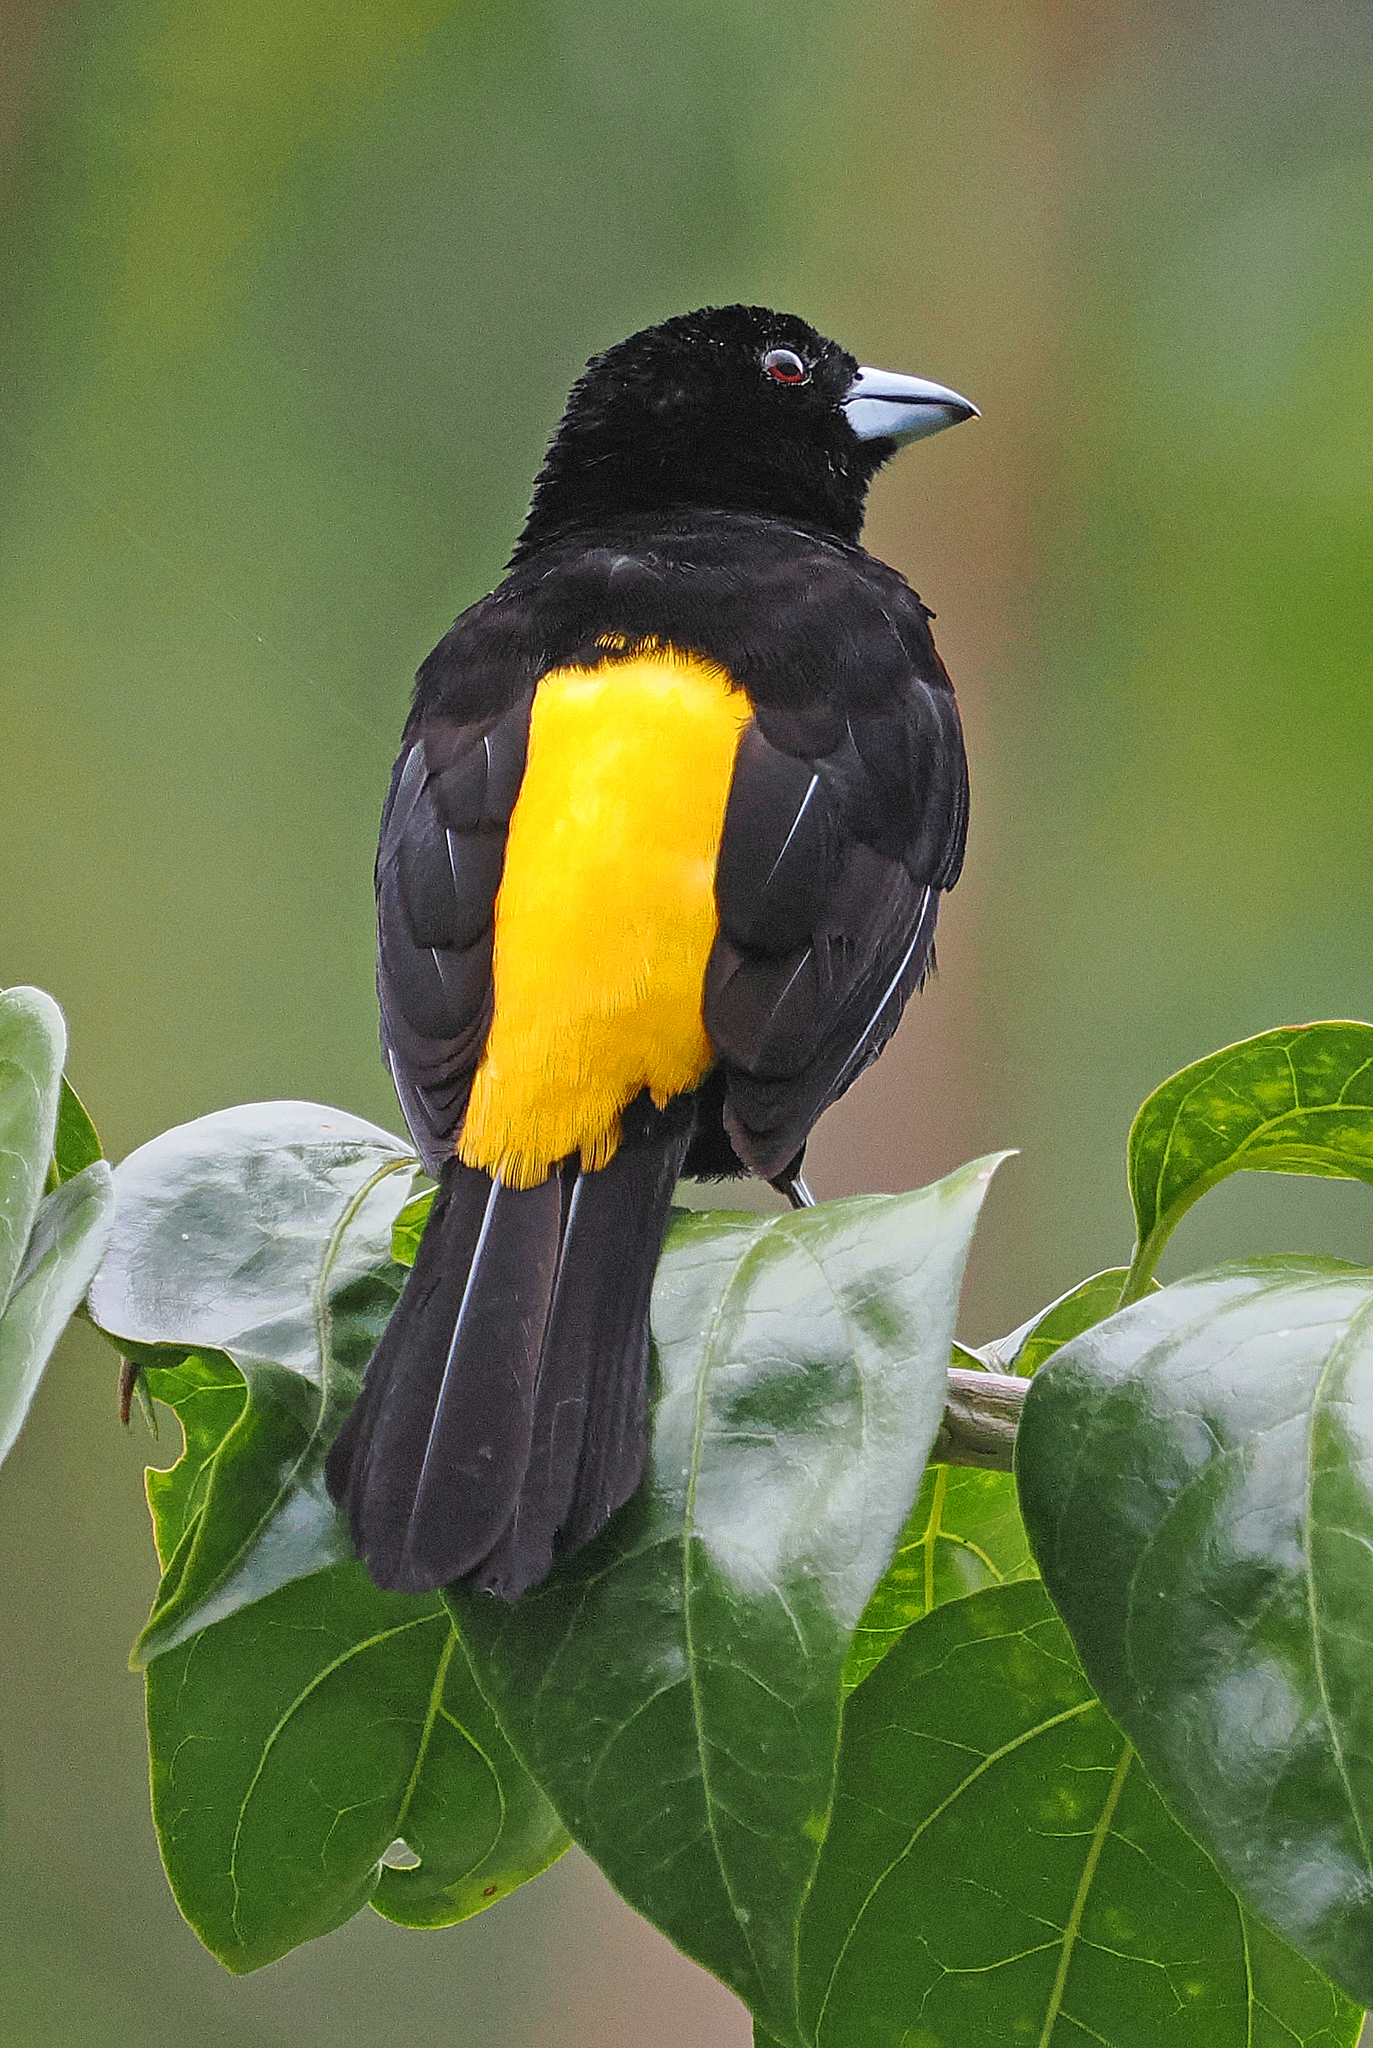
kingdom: Animalia
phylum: Chordata
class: Aves
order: Passeriformes
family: Thraupidae
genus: Ramphocelus
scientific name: Ramphocelus flammigerus
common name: Flame-rumped tanager
